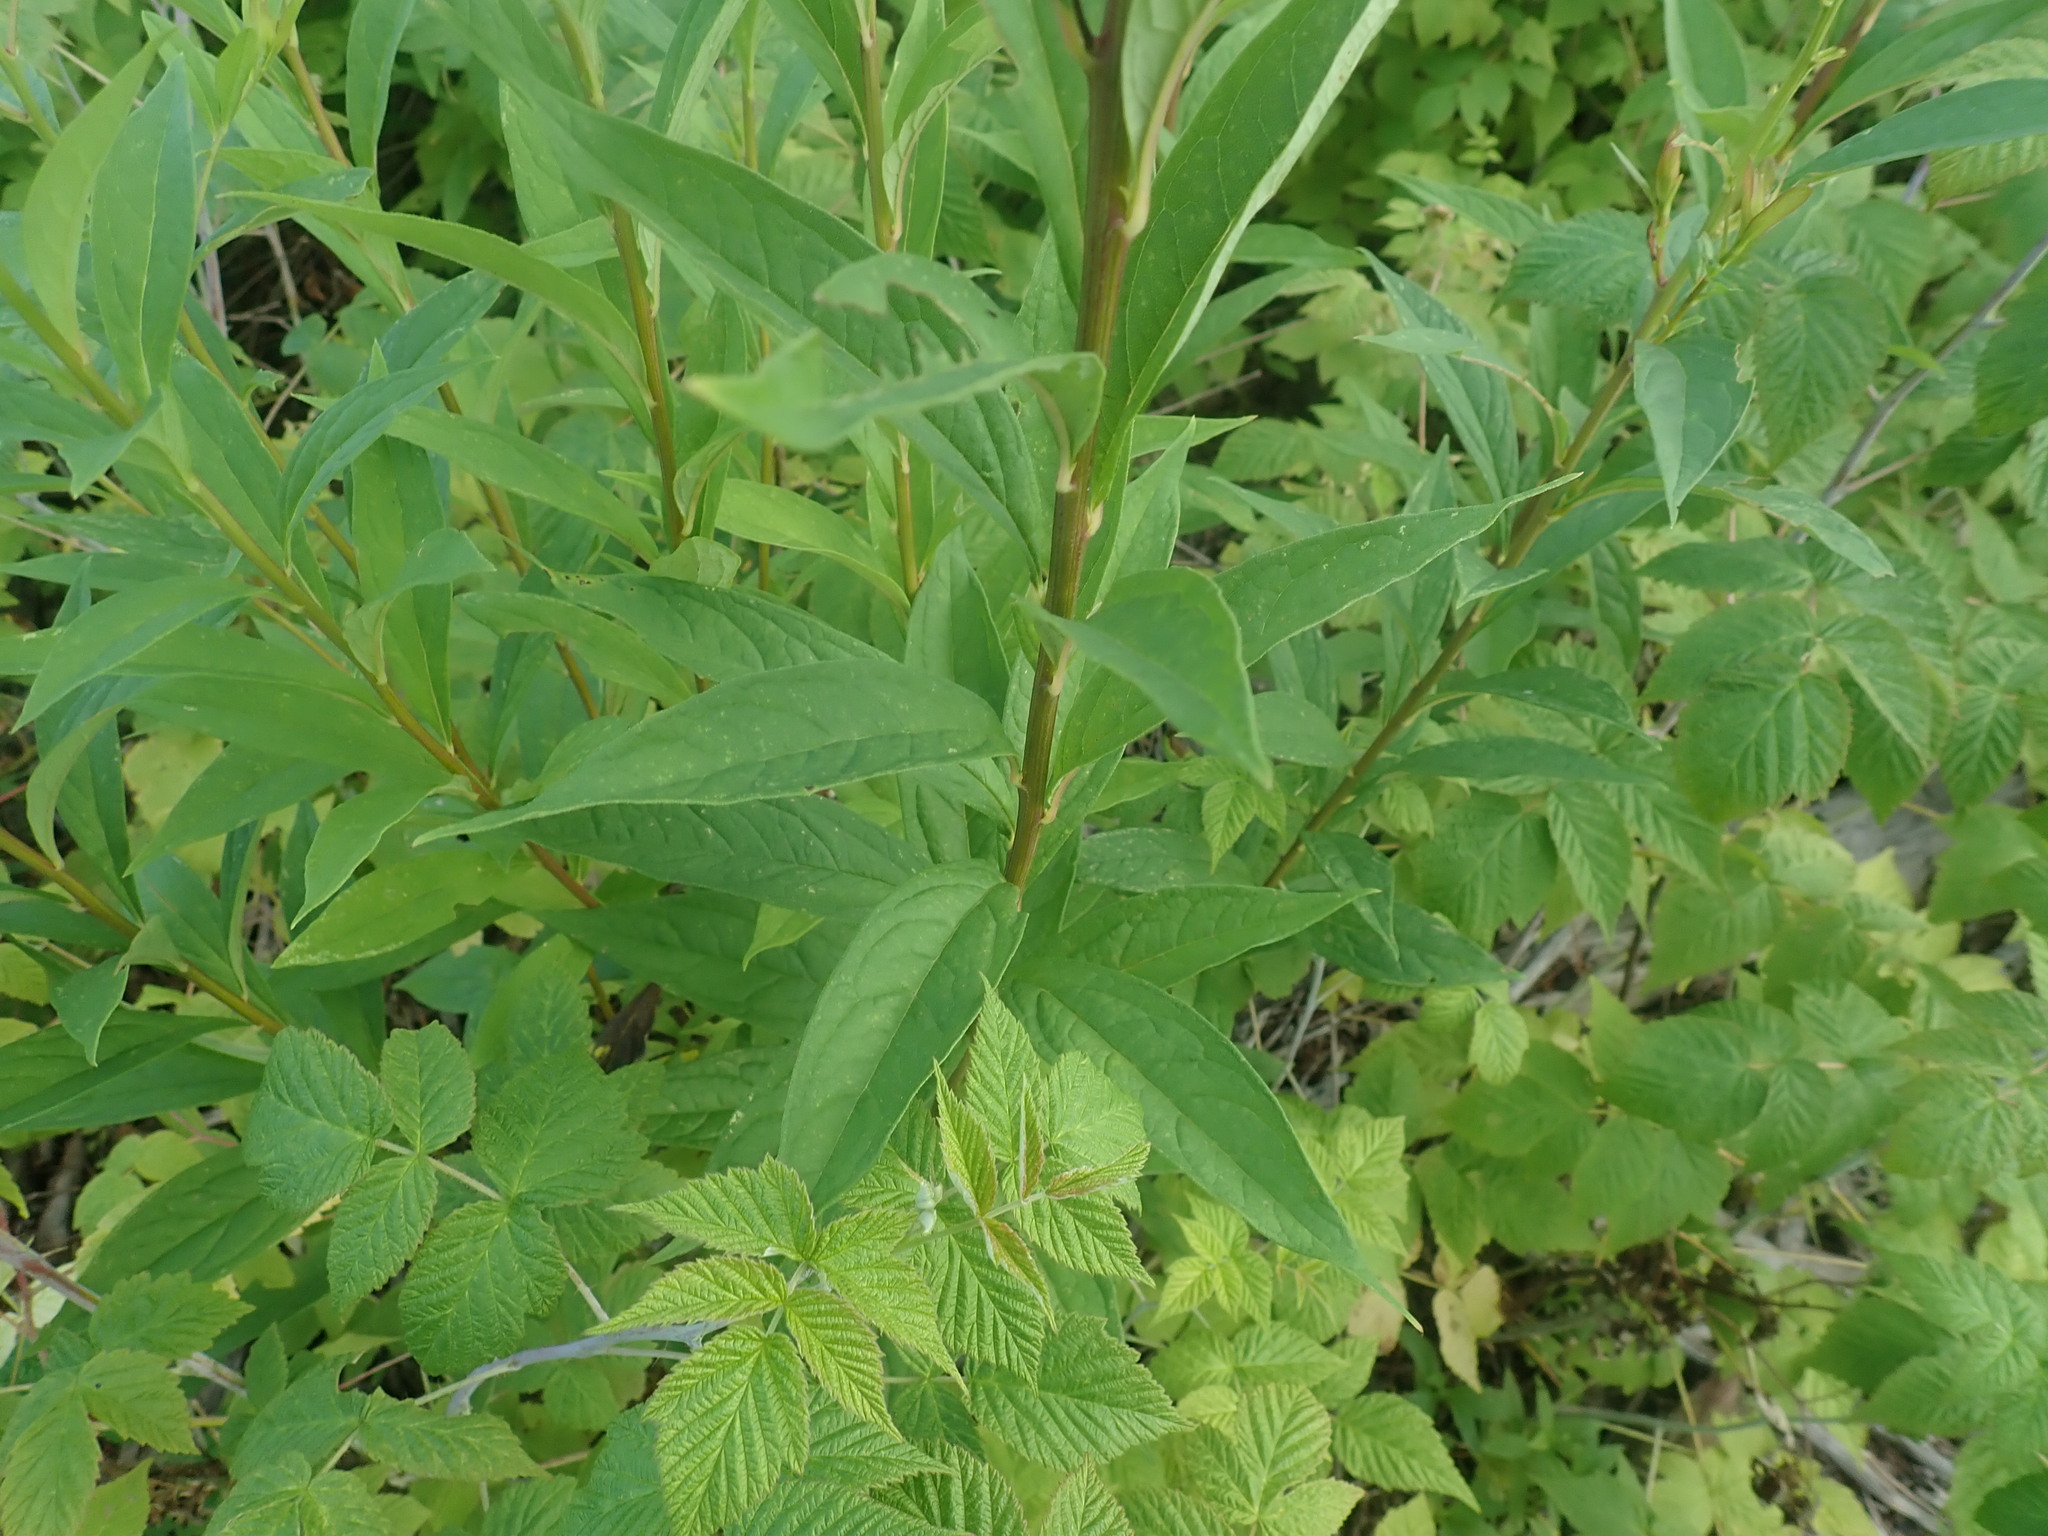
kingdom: Plantae
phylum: Tracheophyta
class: Magnoliopsida
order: Asterales
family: Asteraceae
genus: Doellingeria
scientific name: Doellingeria umbellata
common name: Flat-top white aster
